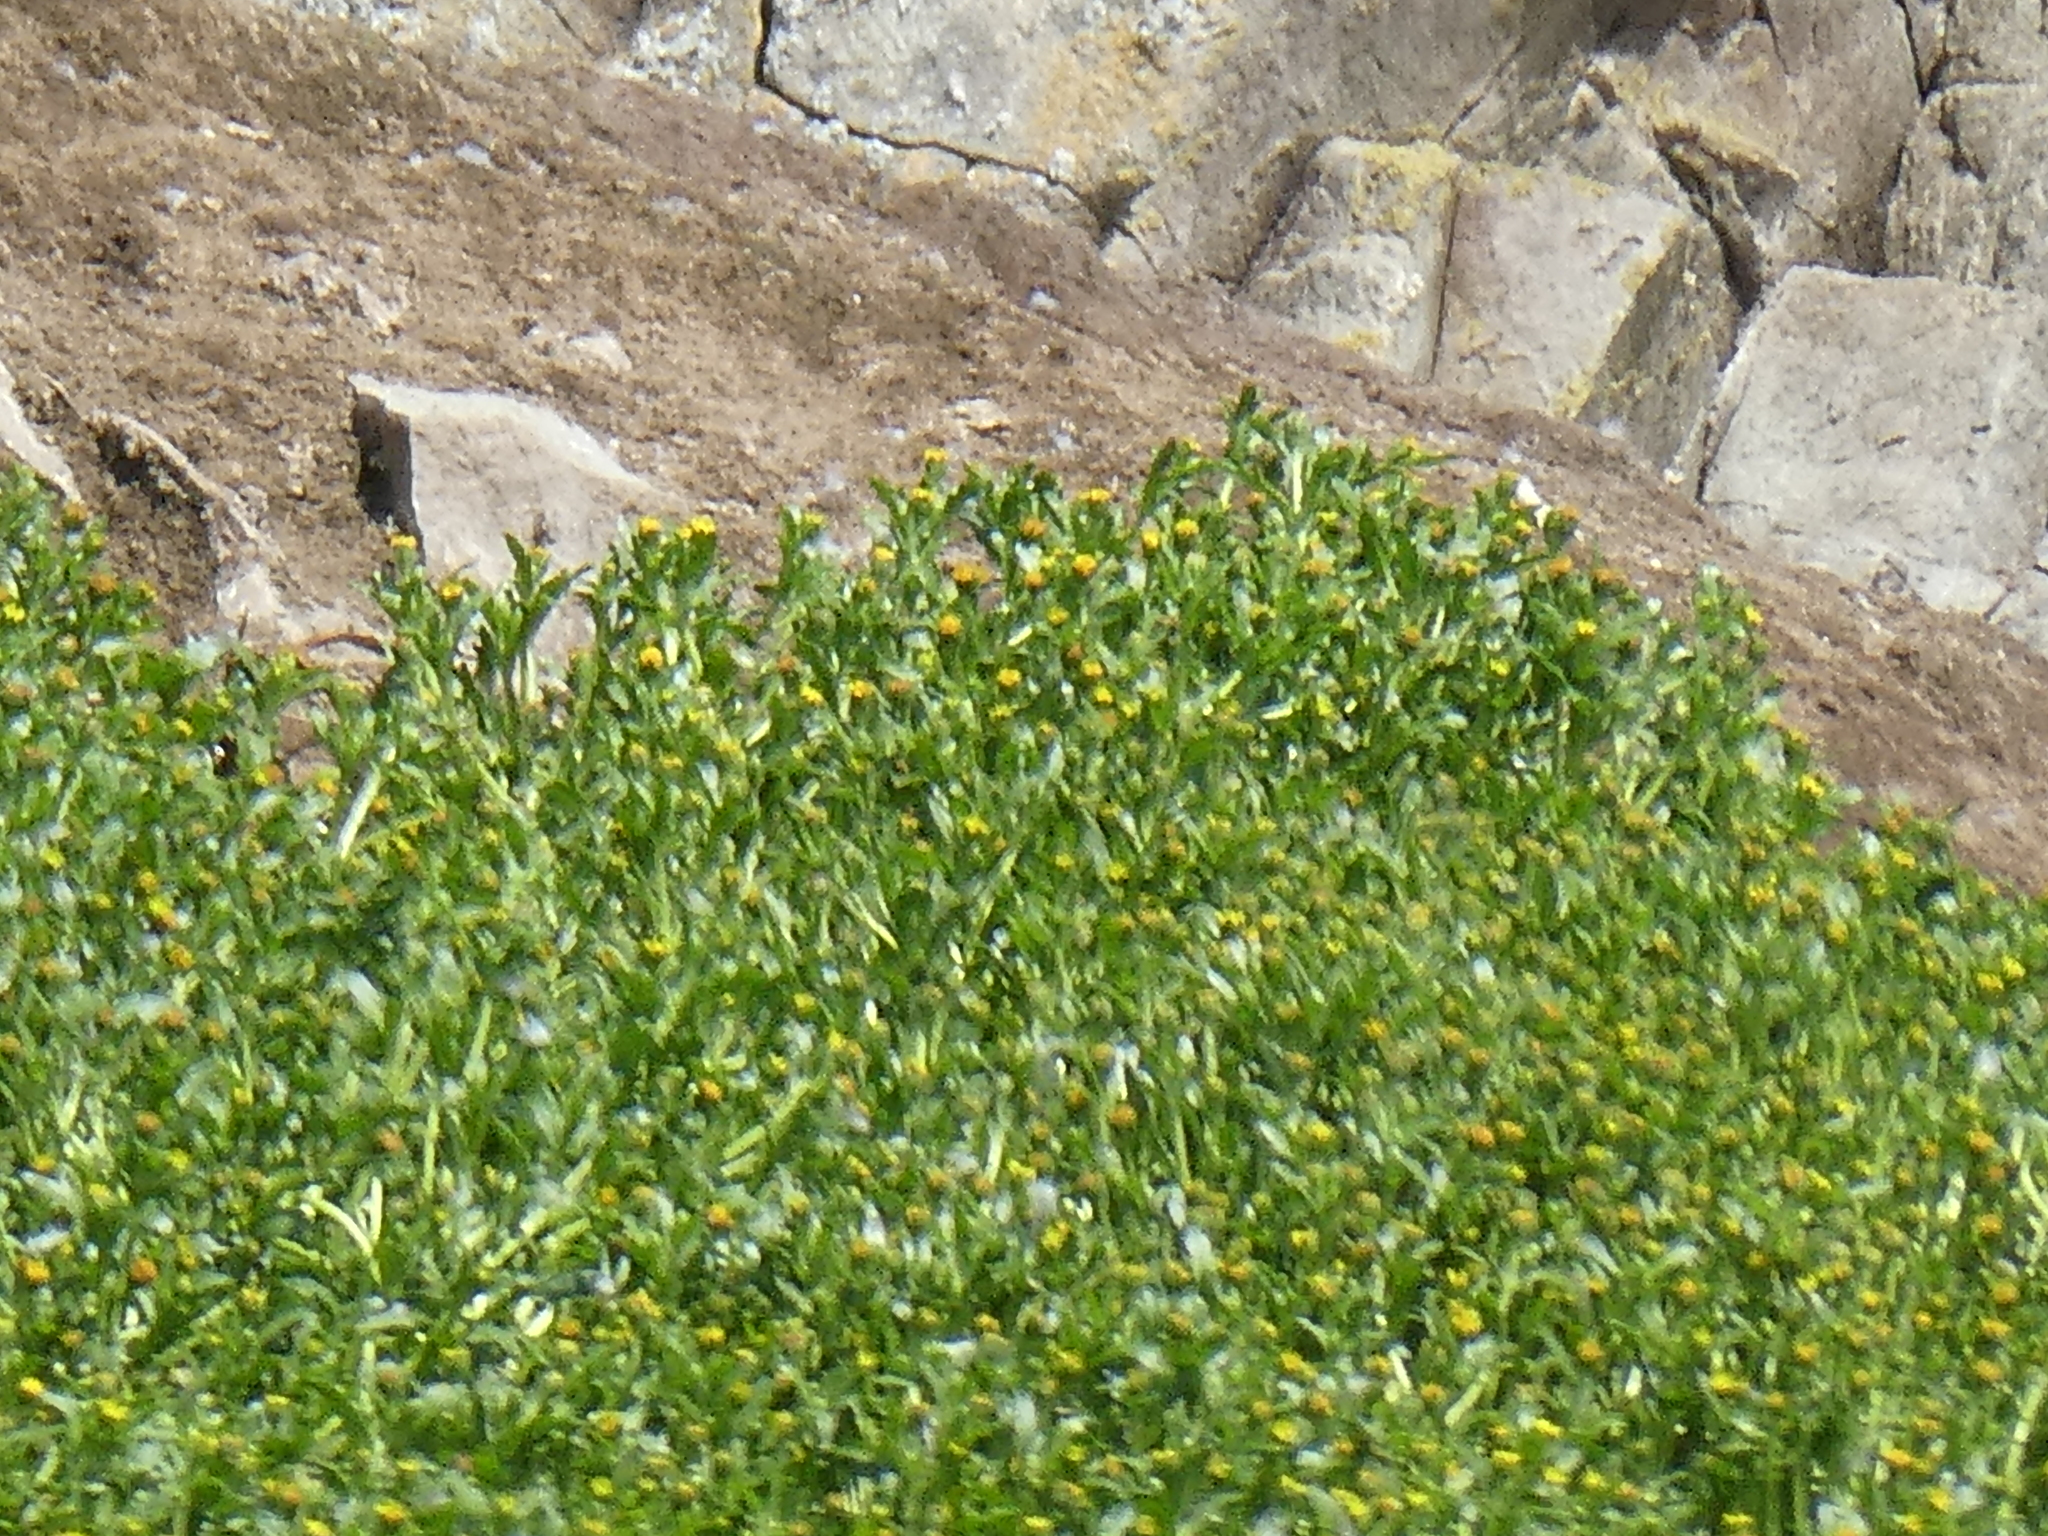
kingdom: Plantae
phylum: Tracheophyta
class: Magnoliopsida
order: Asterales
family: Asteraceae
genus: Lasthenia
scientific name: Lasthenia maritima
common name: Hairy goldfields
